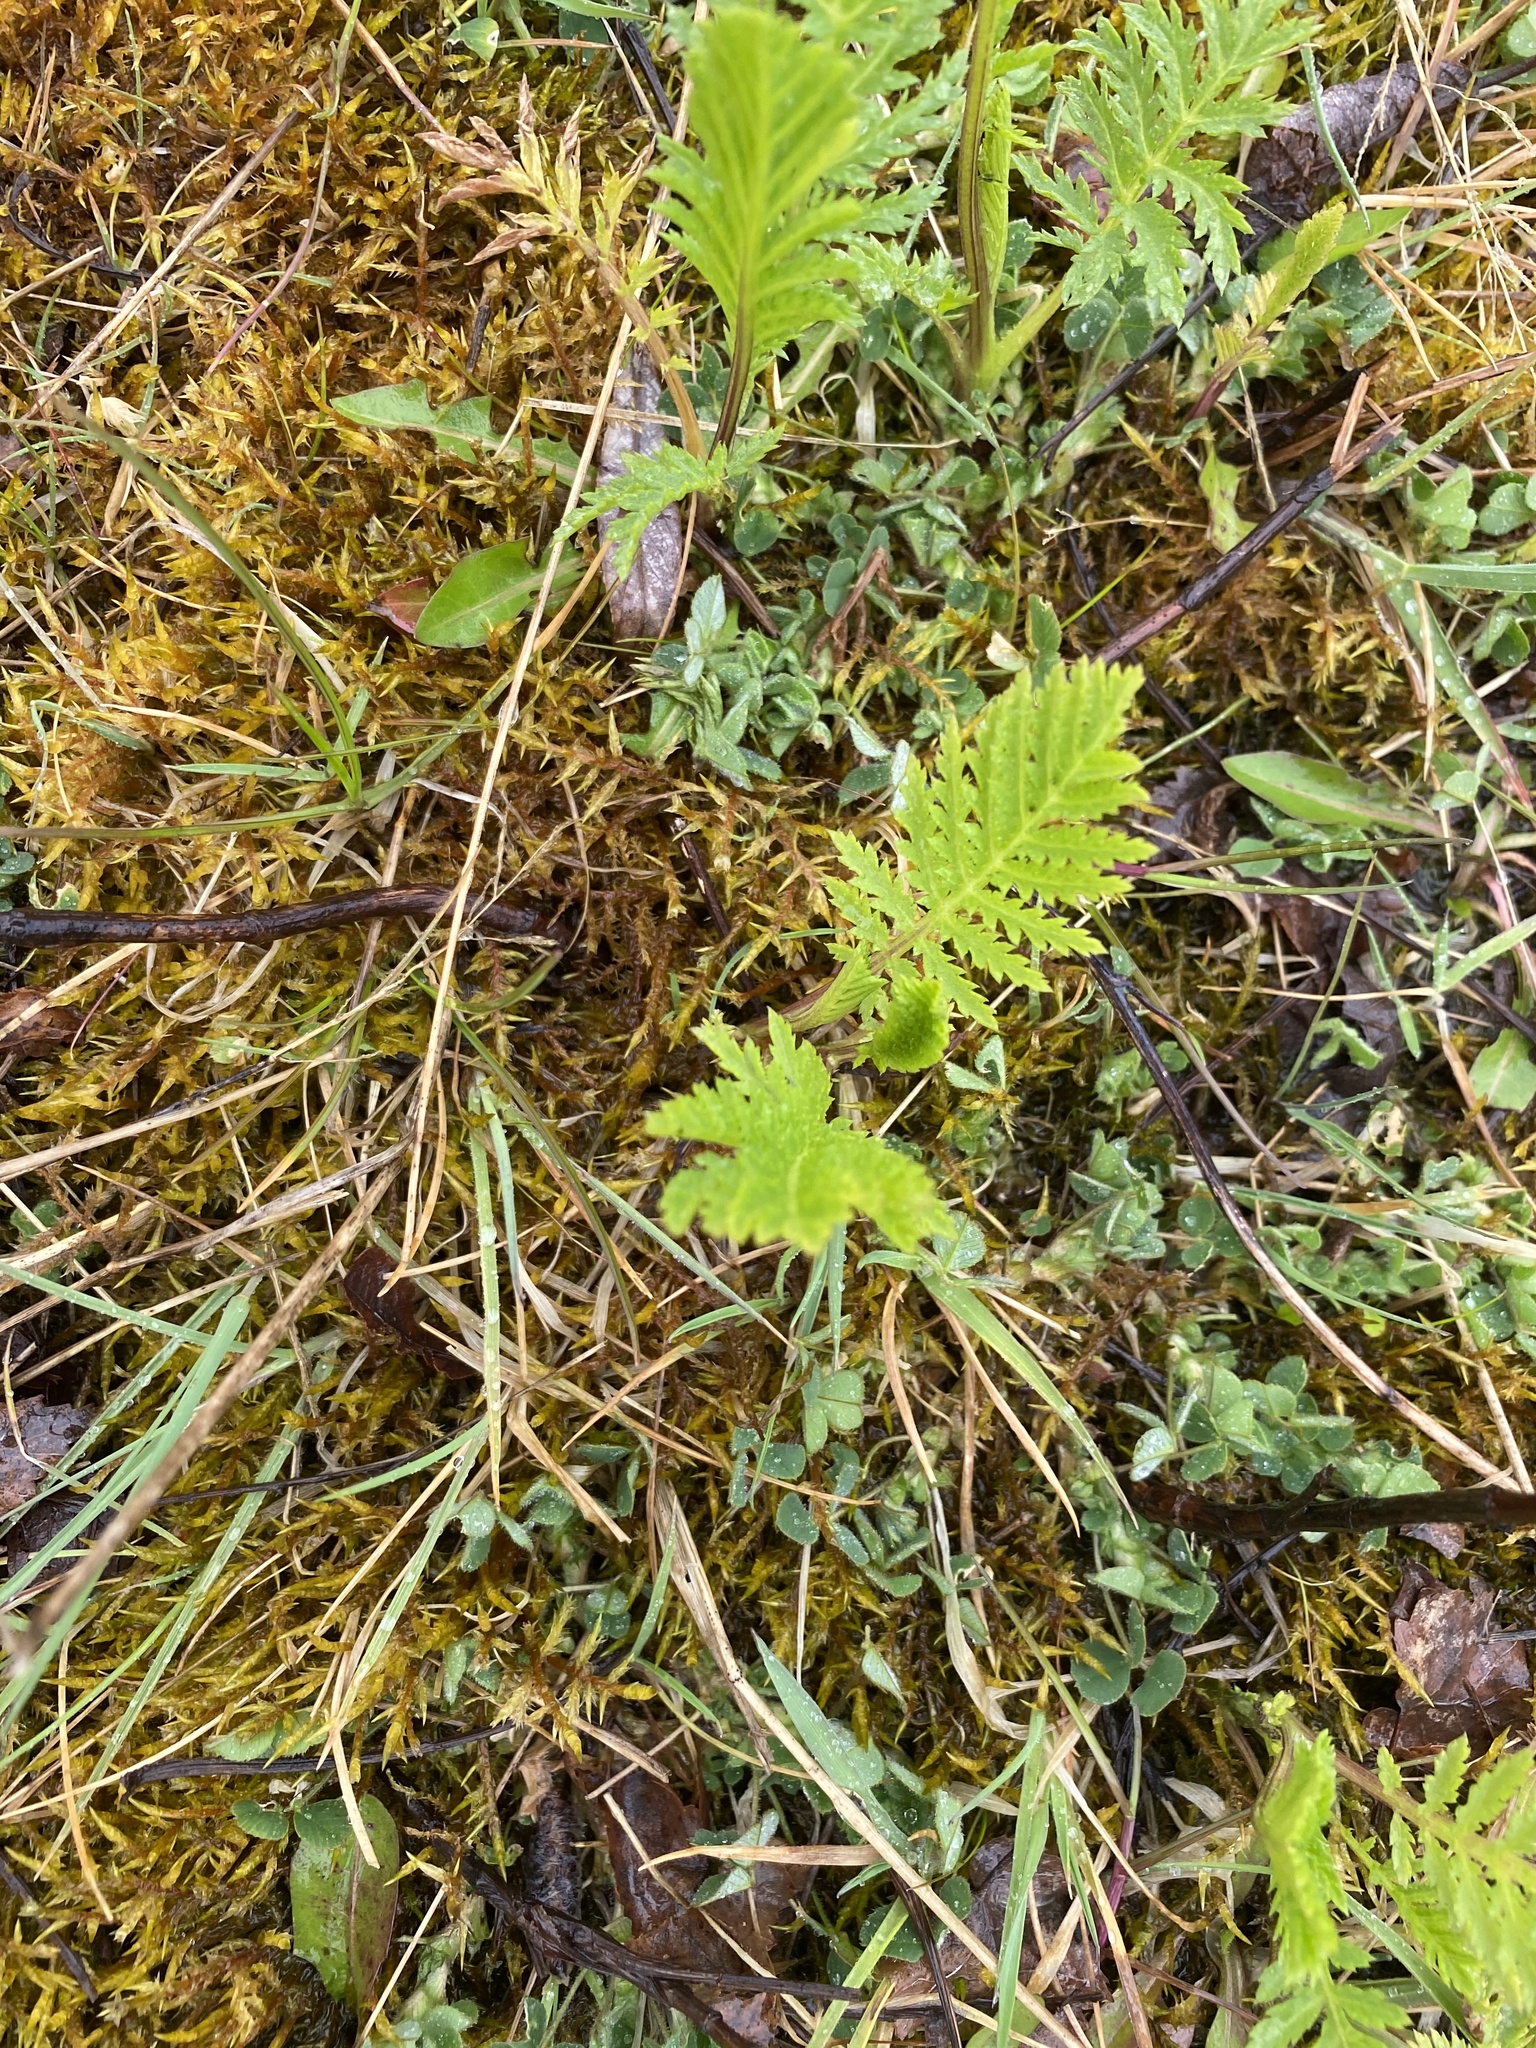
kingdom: Plantae
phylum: Tracheophyta
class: Magnoliopsida
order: Asterales
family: Asteraceae
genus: Tanacetum
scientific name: Tanacetum vulgare
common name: Common tansy
